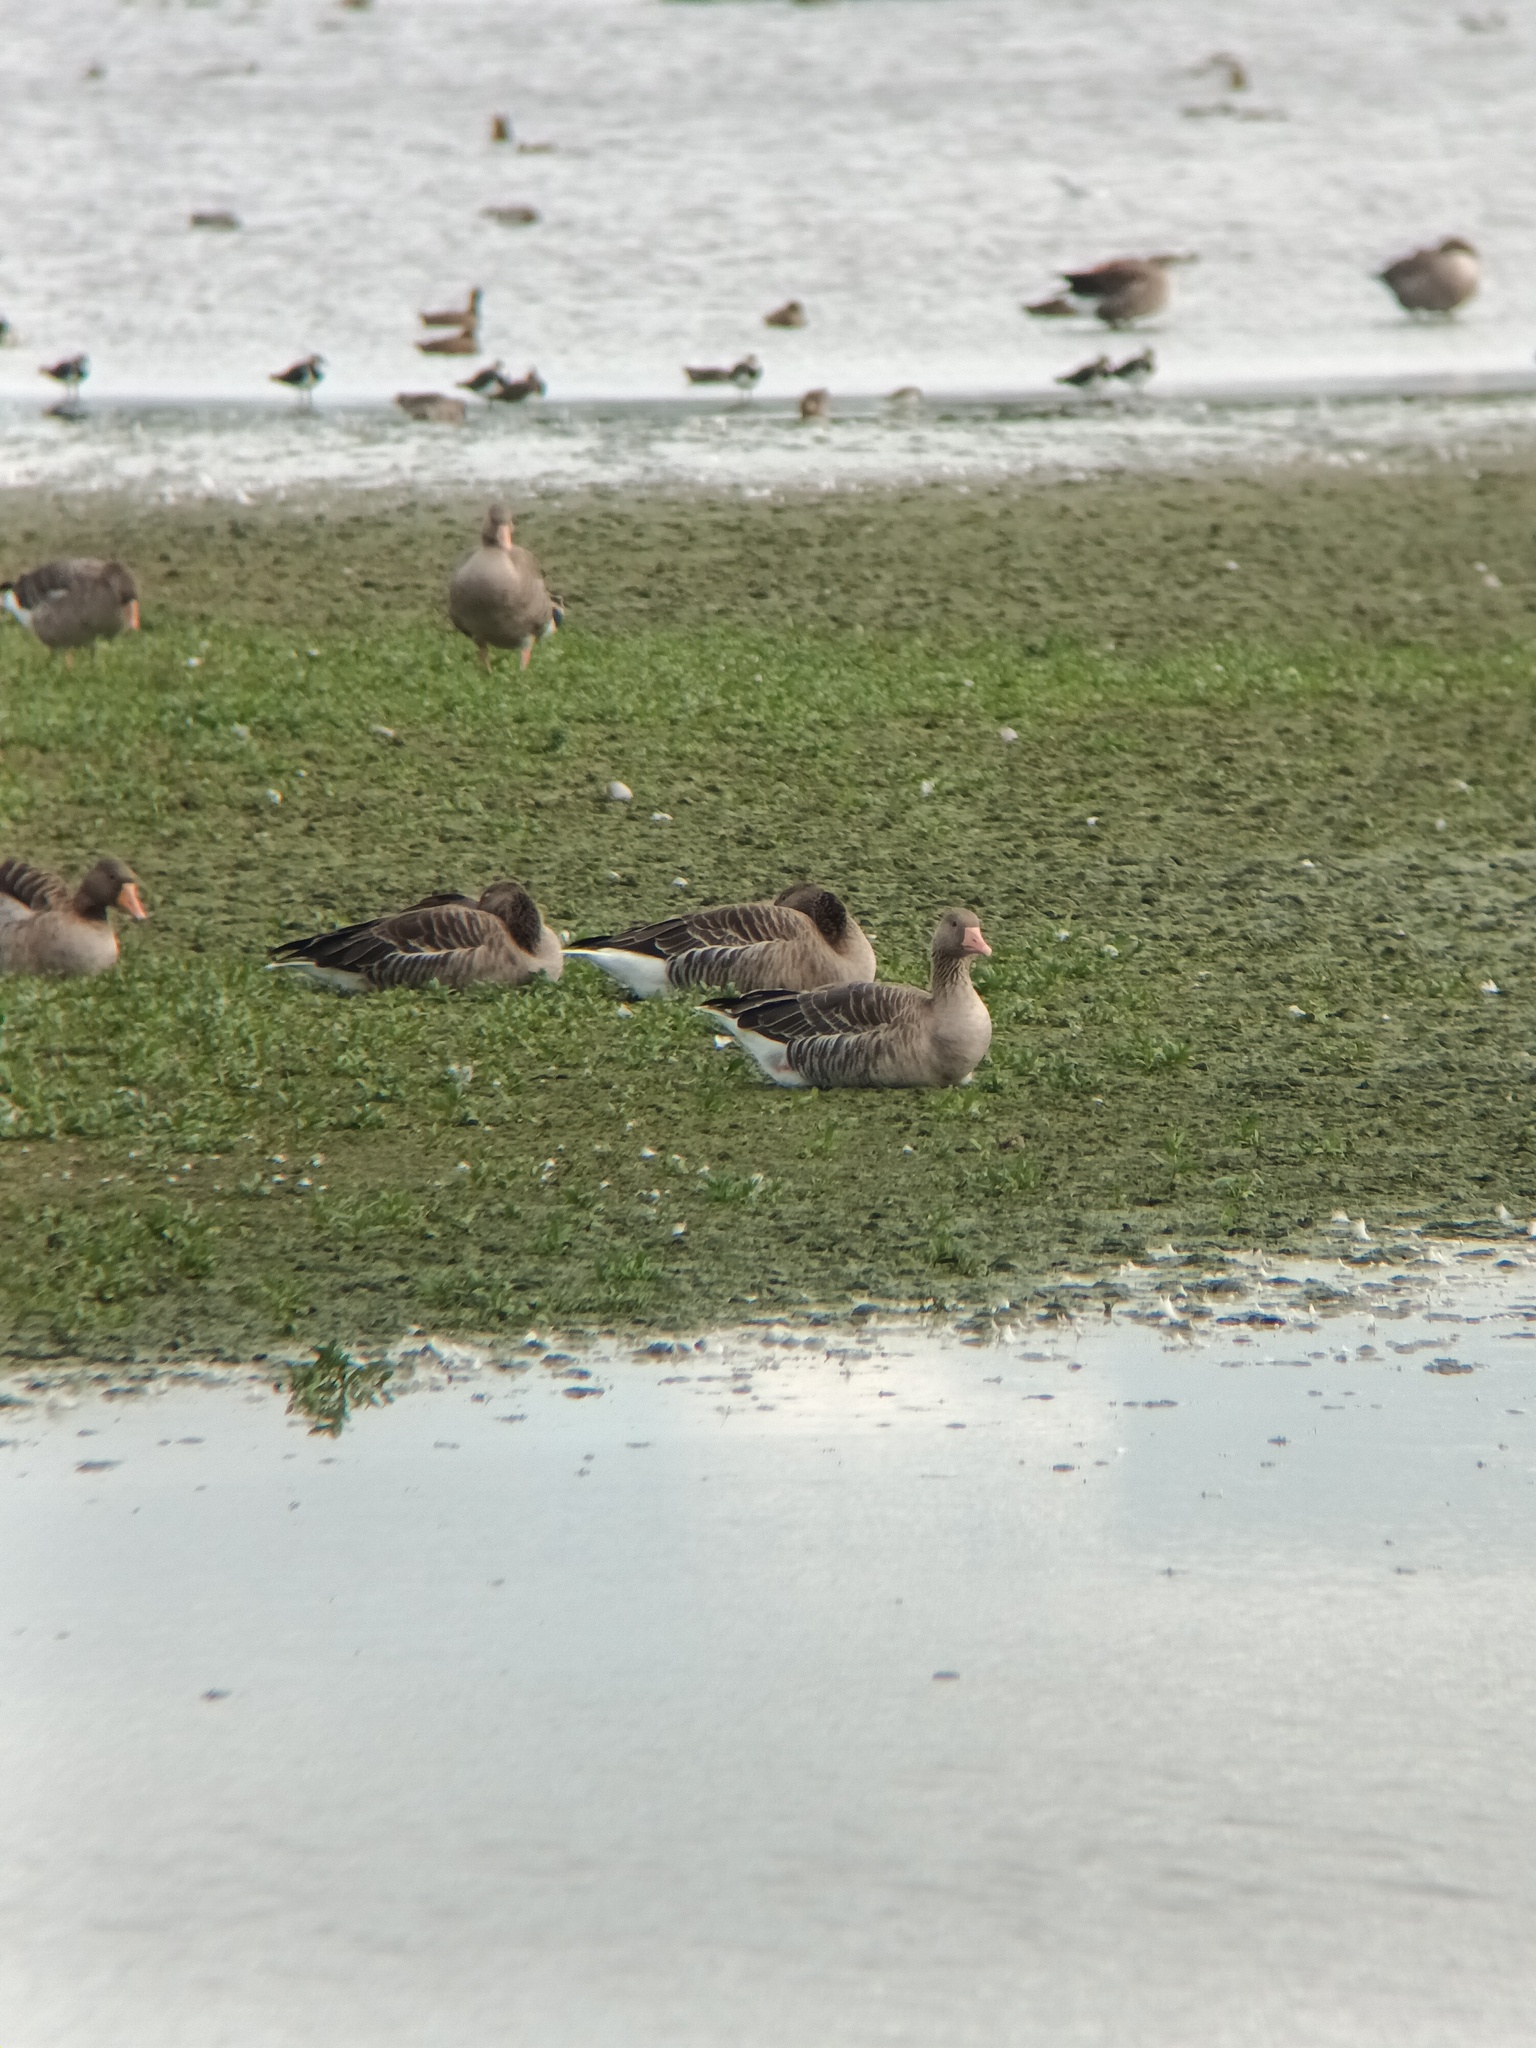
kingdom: Animalia
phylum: Chordata
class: Aves
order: Anseriformes
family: Anatidae
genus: Anser
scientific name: Anser anser
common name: Greylag goose
